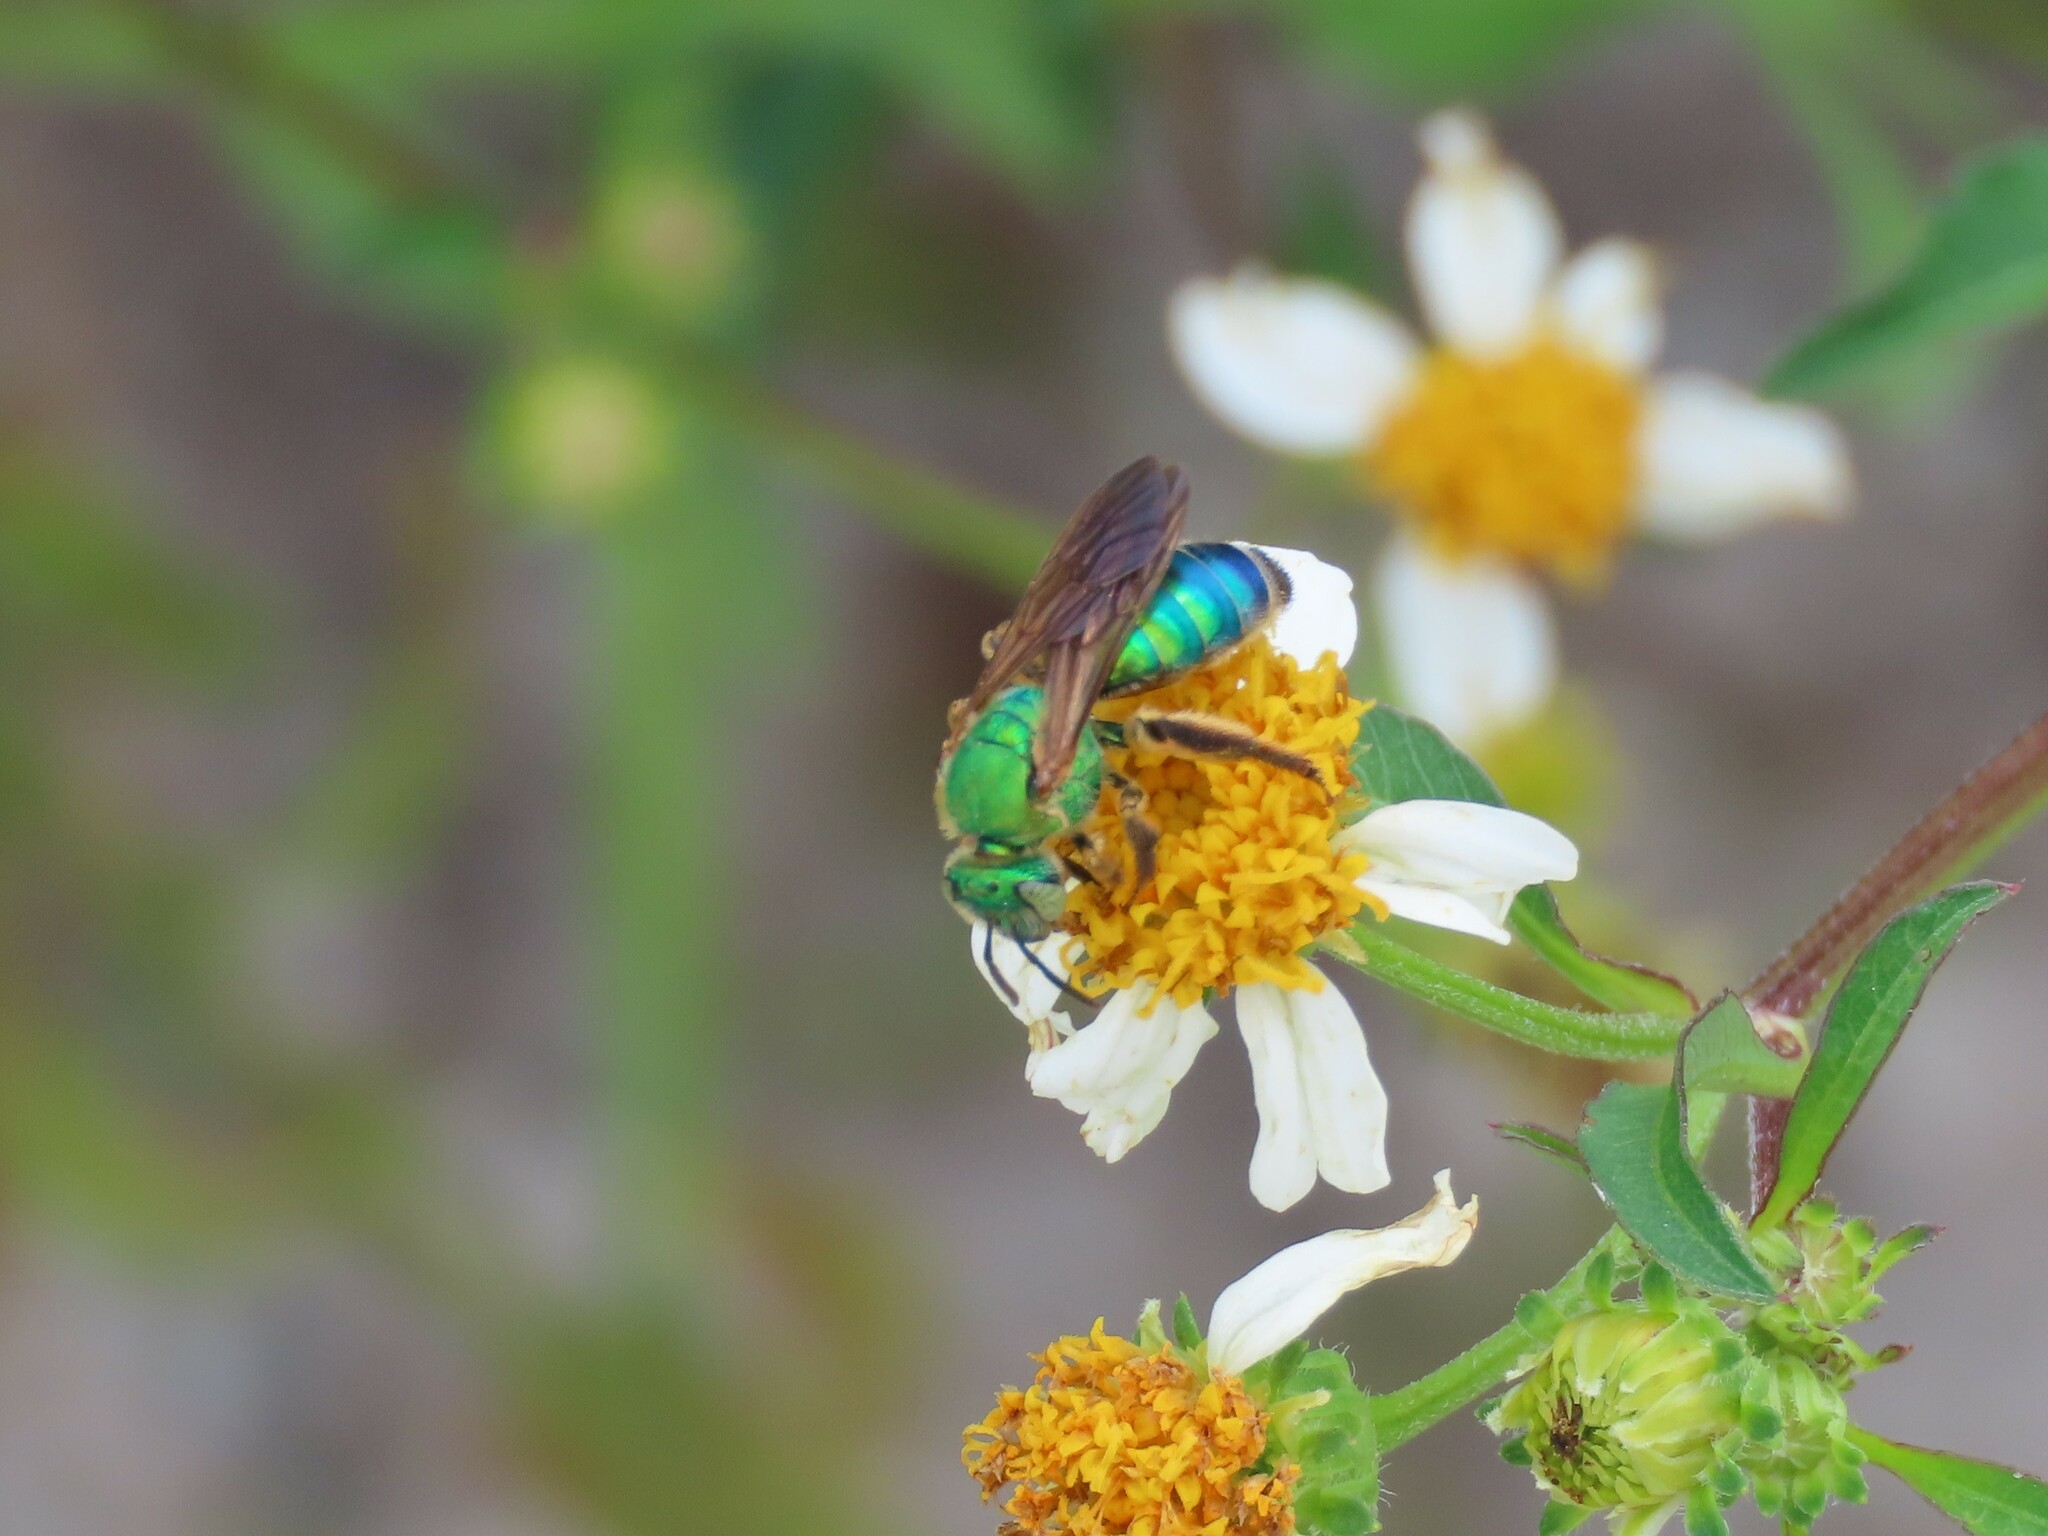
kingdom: Animalia
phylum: Arthropoda
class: Insecta
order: Hymenoptera
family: Halictidae
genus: Agapostemon
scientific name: Agapostemon splendens
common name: Brown-winged striped sweat bee
